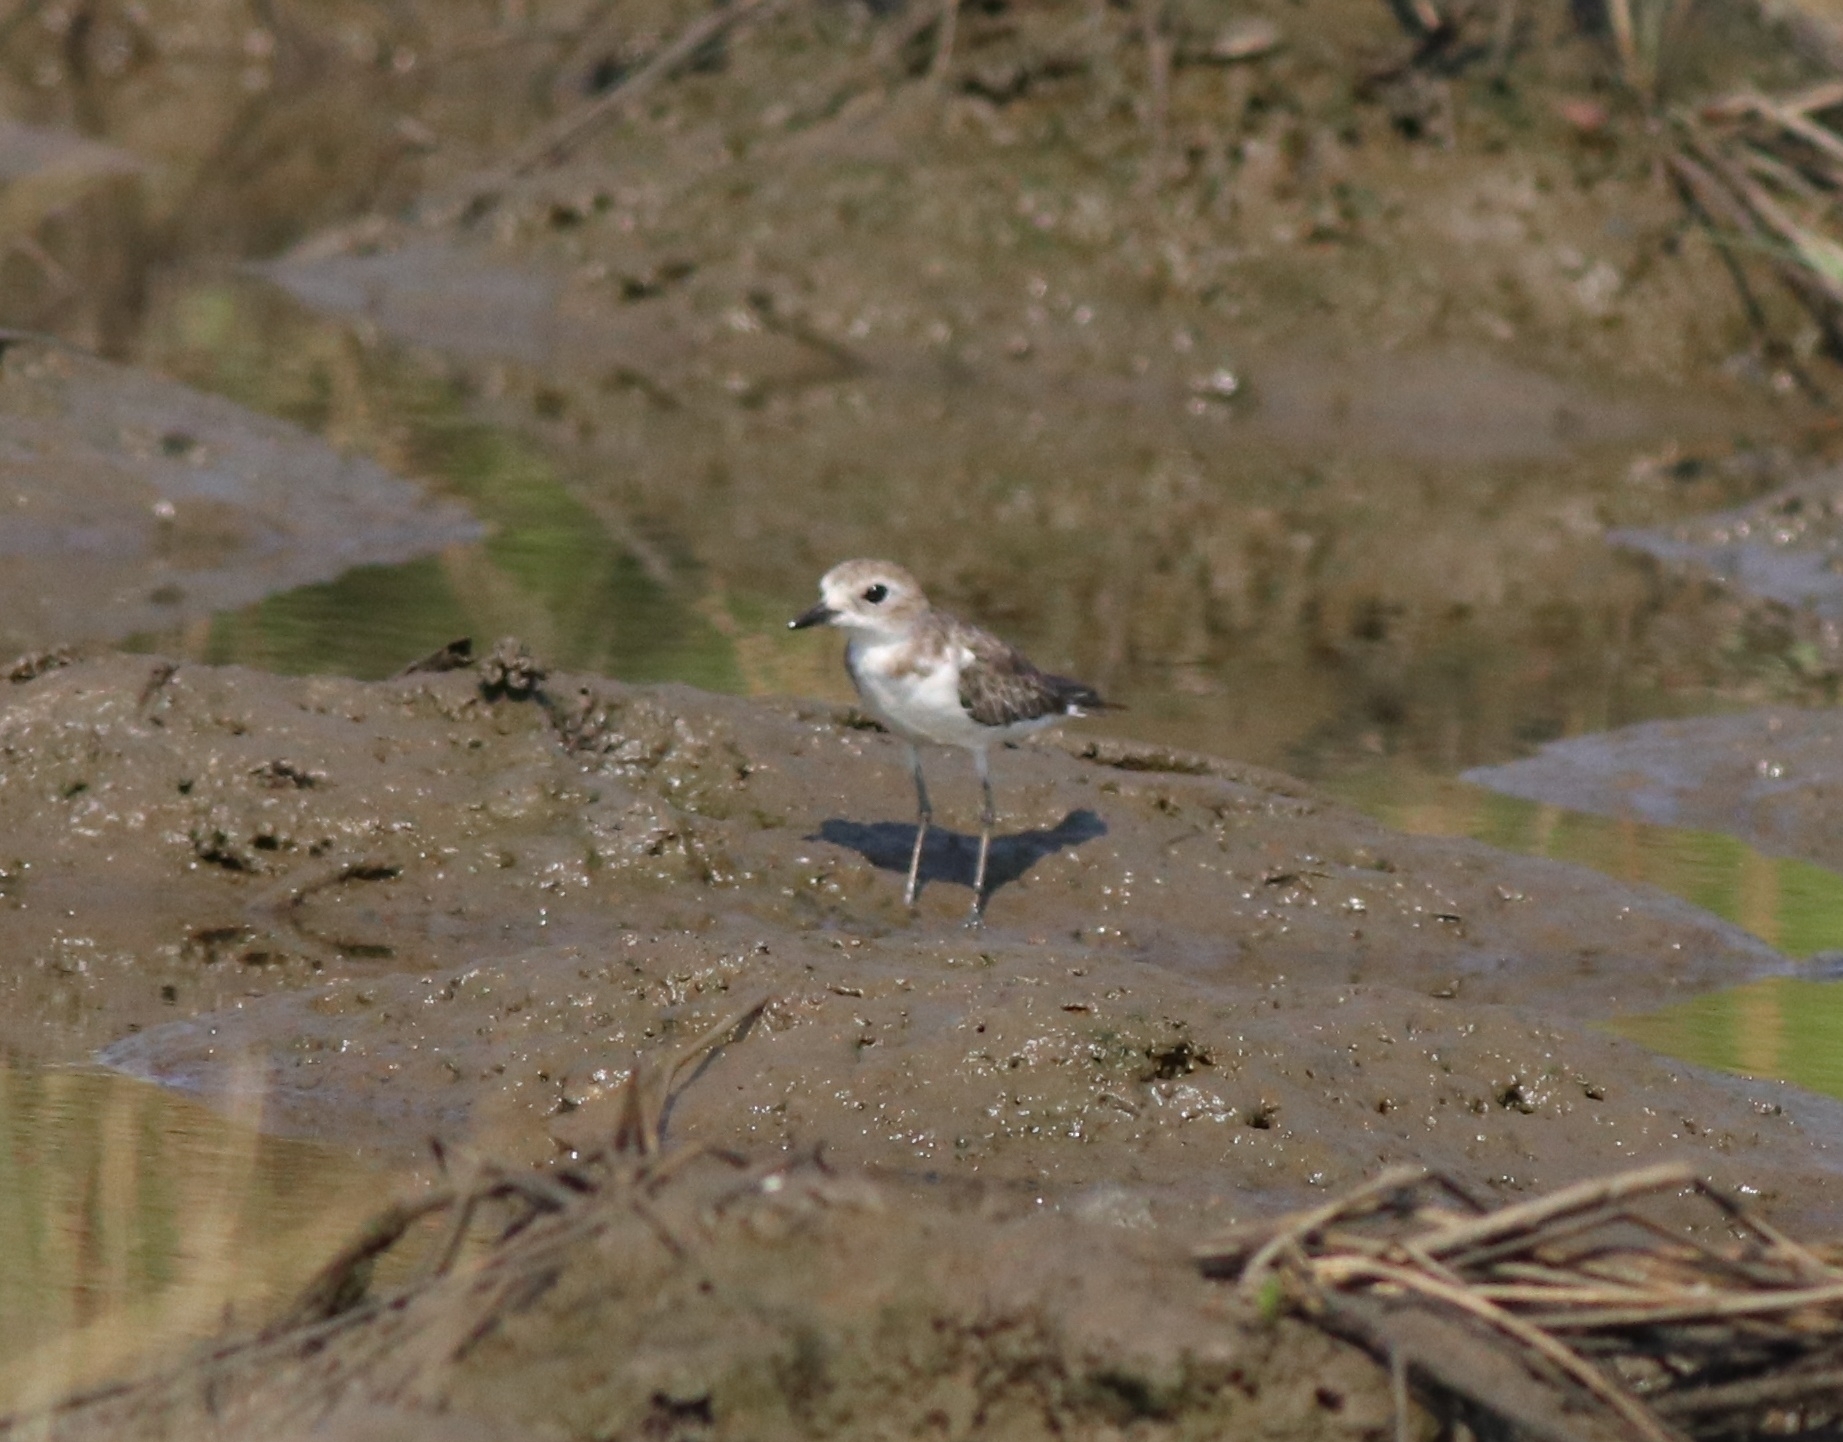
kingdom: Animalia
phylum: Chordata
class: Aves
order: Charadriiformes
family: Charadriidae
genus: Anarhynchus
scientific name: Anarhynchus
